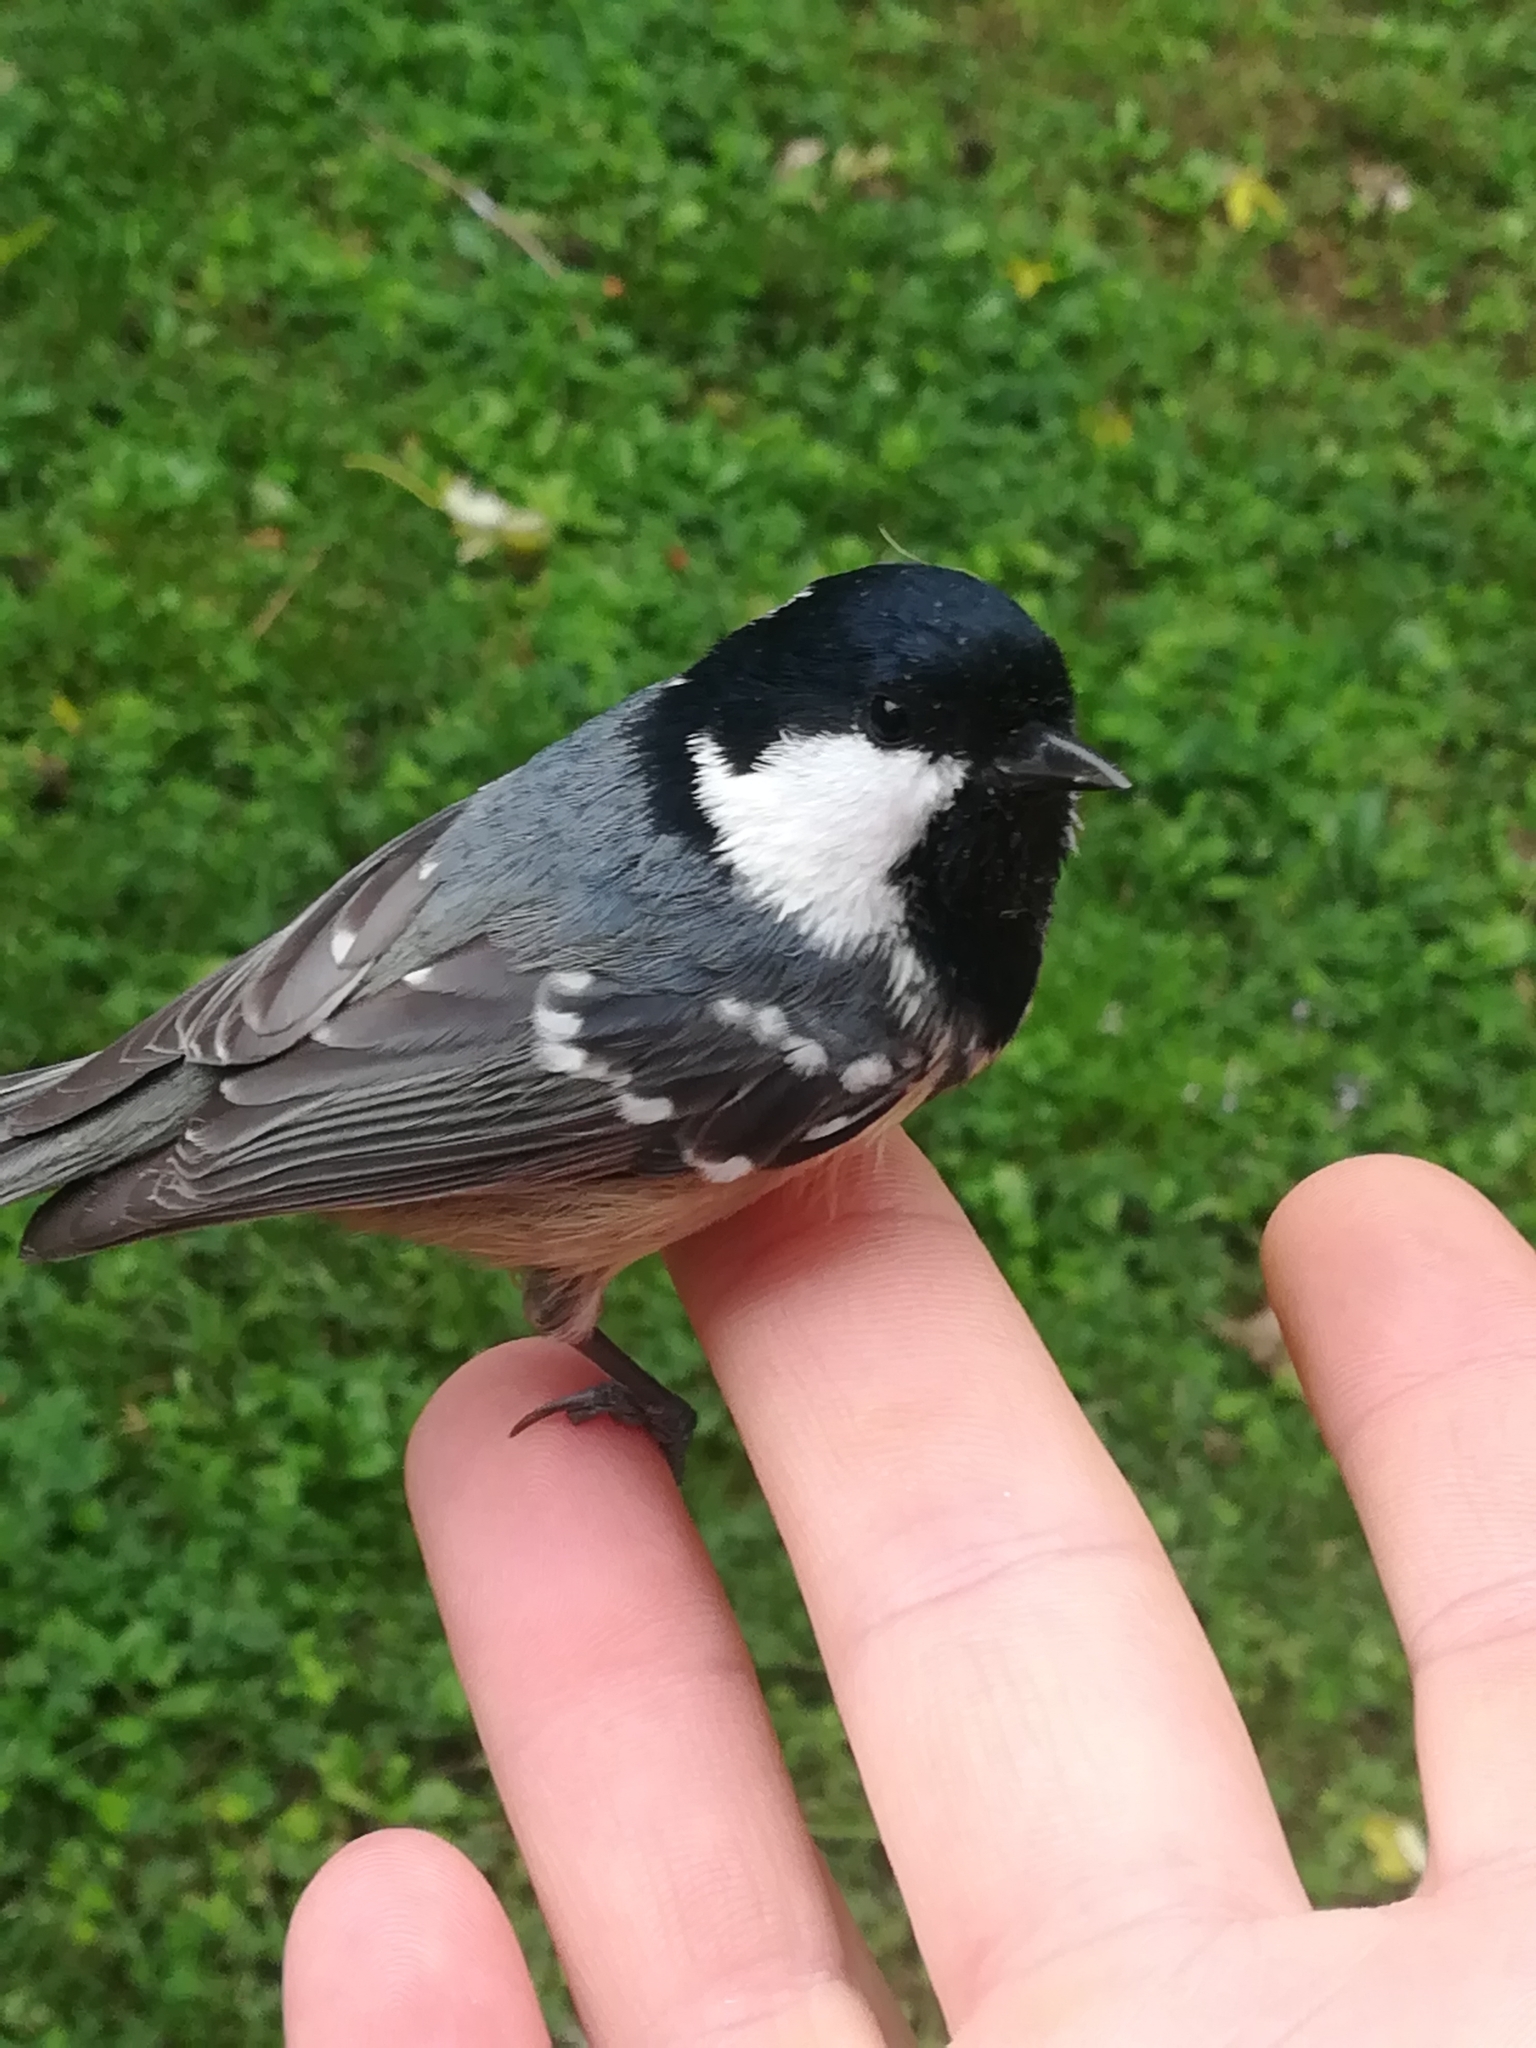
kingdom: Animalia
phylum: Chordata
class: Aves
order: Passeriformes
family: Paridae
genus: Periparus
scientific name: Periparus ater
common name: Coal tit
